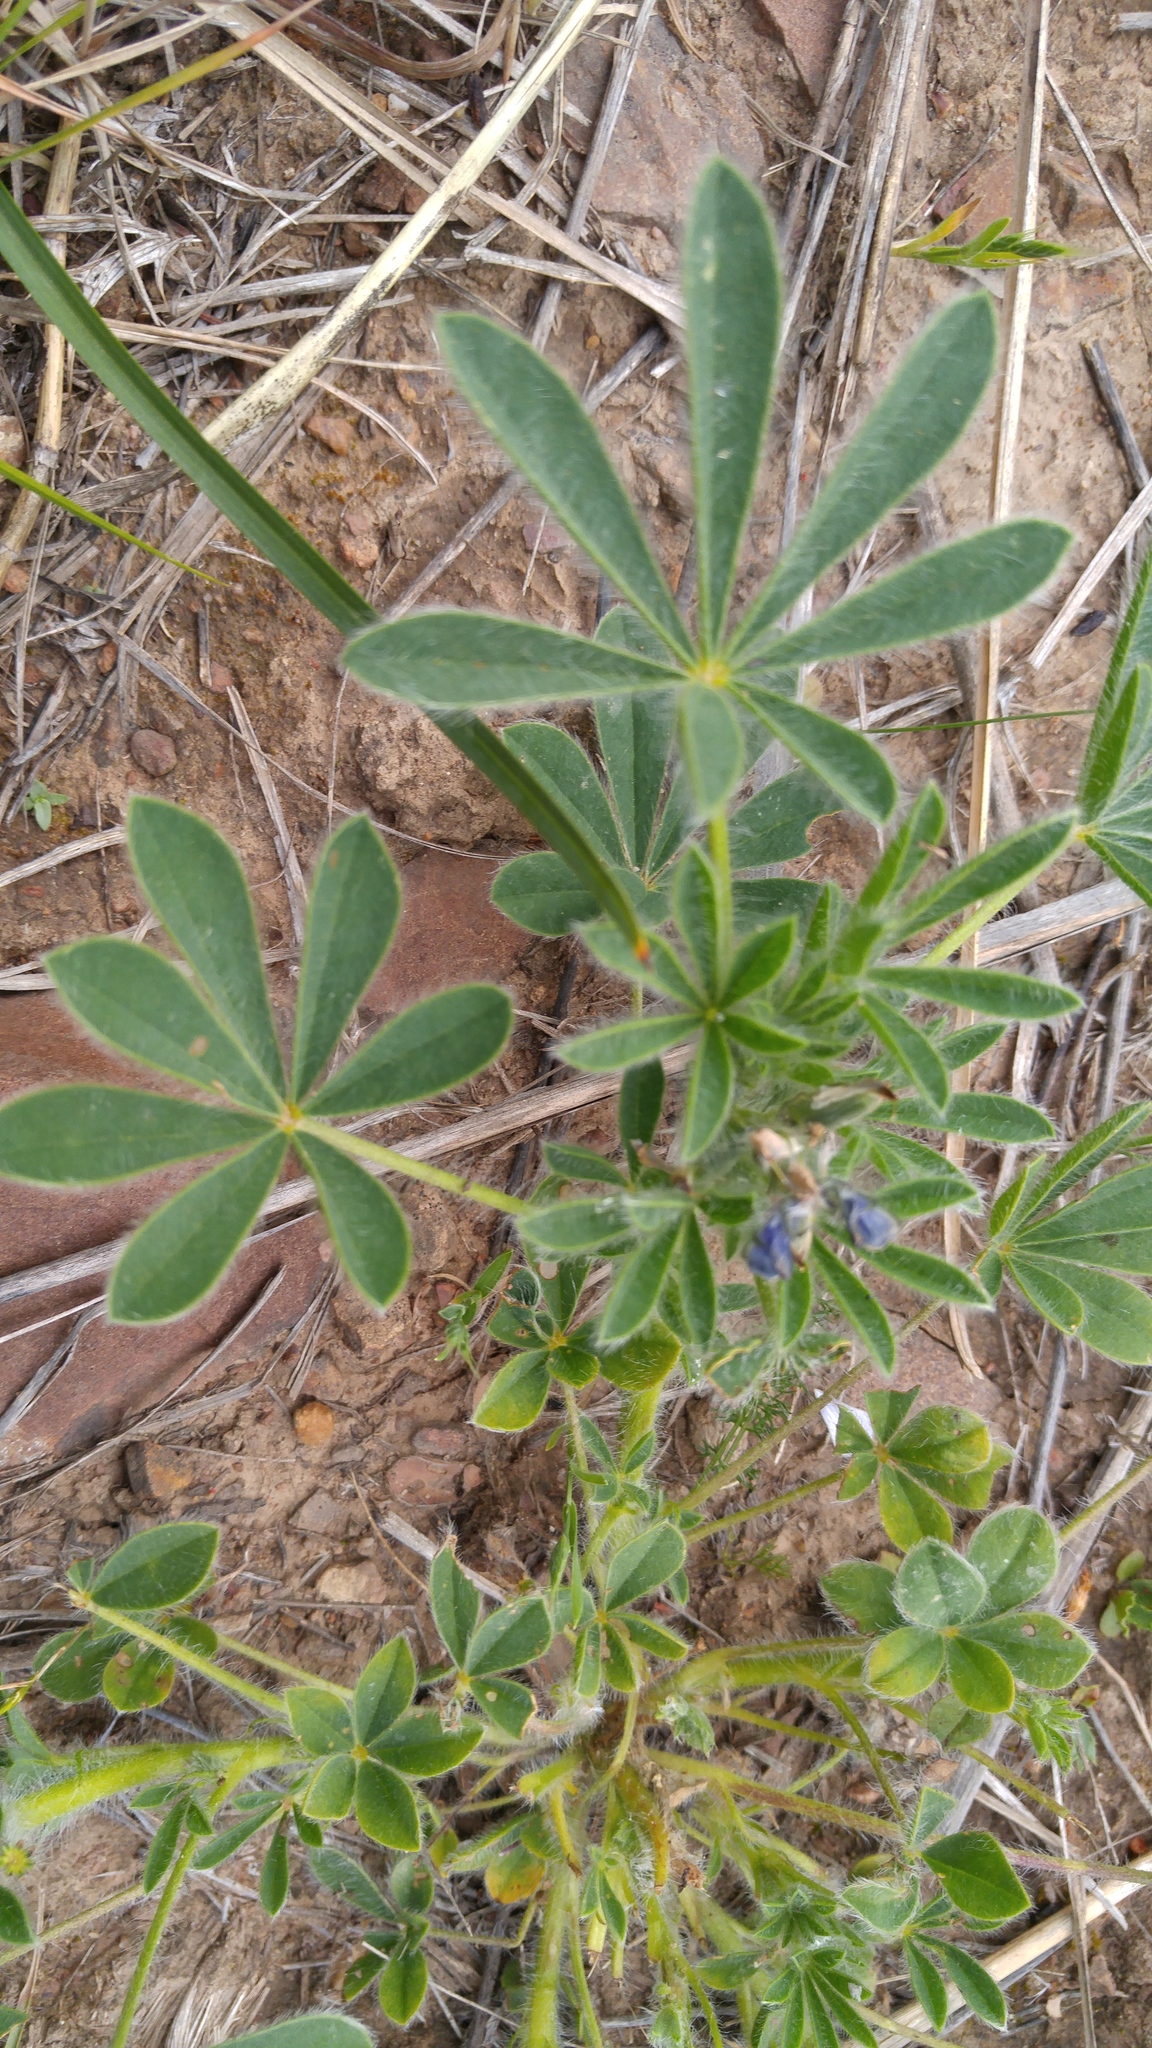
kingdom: Plantae
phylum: Tracheophyta
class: Magnoliopsida
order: Fabales
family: Fabaceae
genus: Lupinus
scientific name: Lupinus gussoneanus
